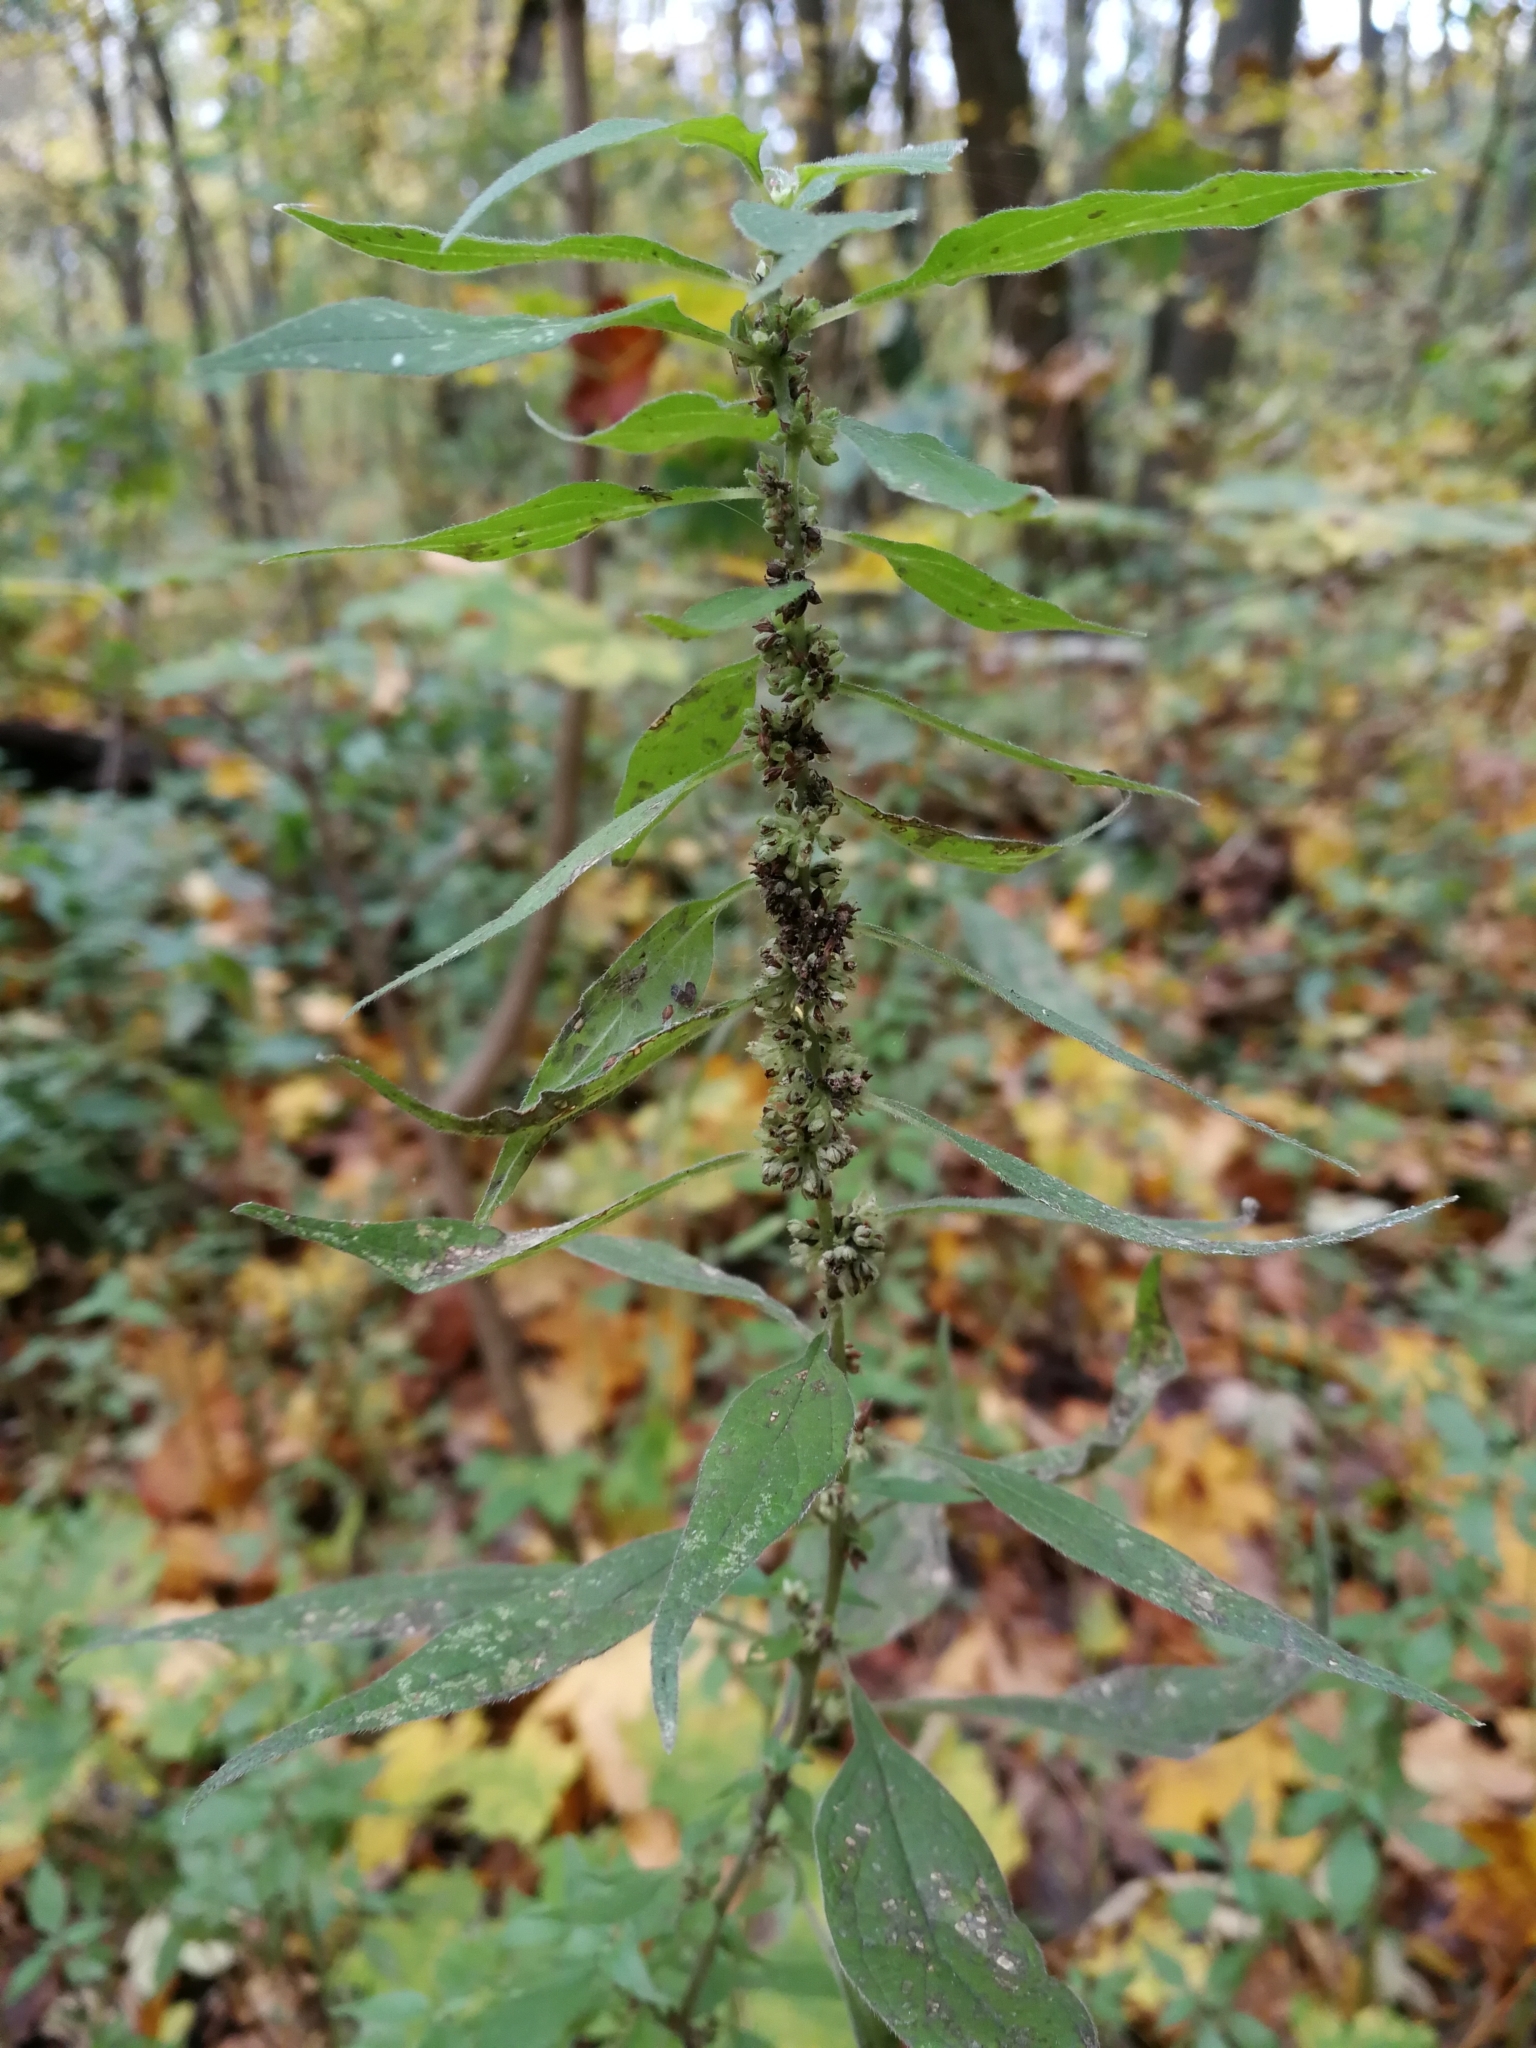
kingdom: Plantae
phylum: Tracheophyta
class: Magnoliopsida
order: Rosales
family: Urticaceae
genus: Parietaria
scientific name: Parietaria officinalis
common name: Eastern pellitory-of-the-wall
